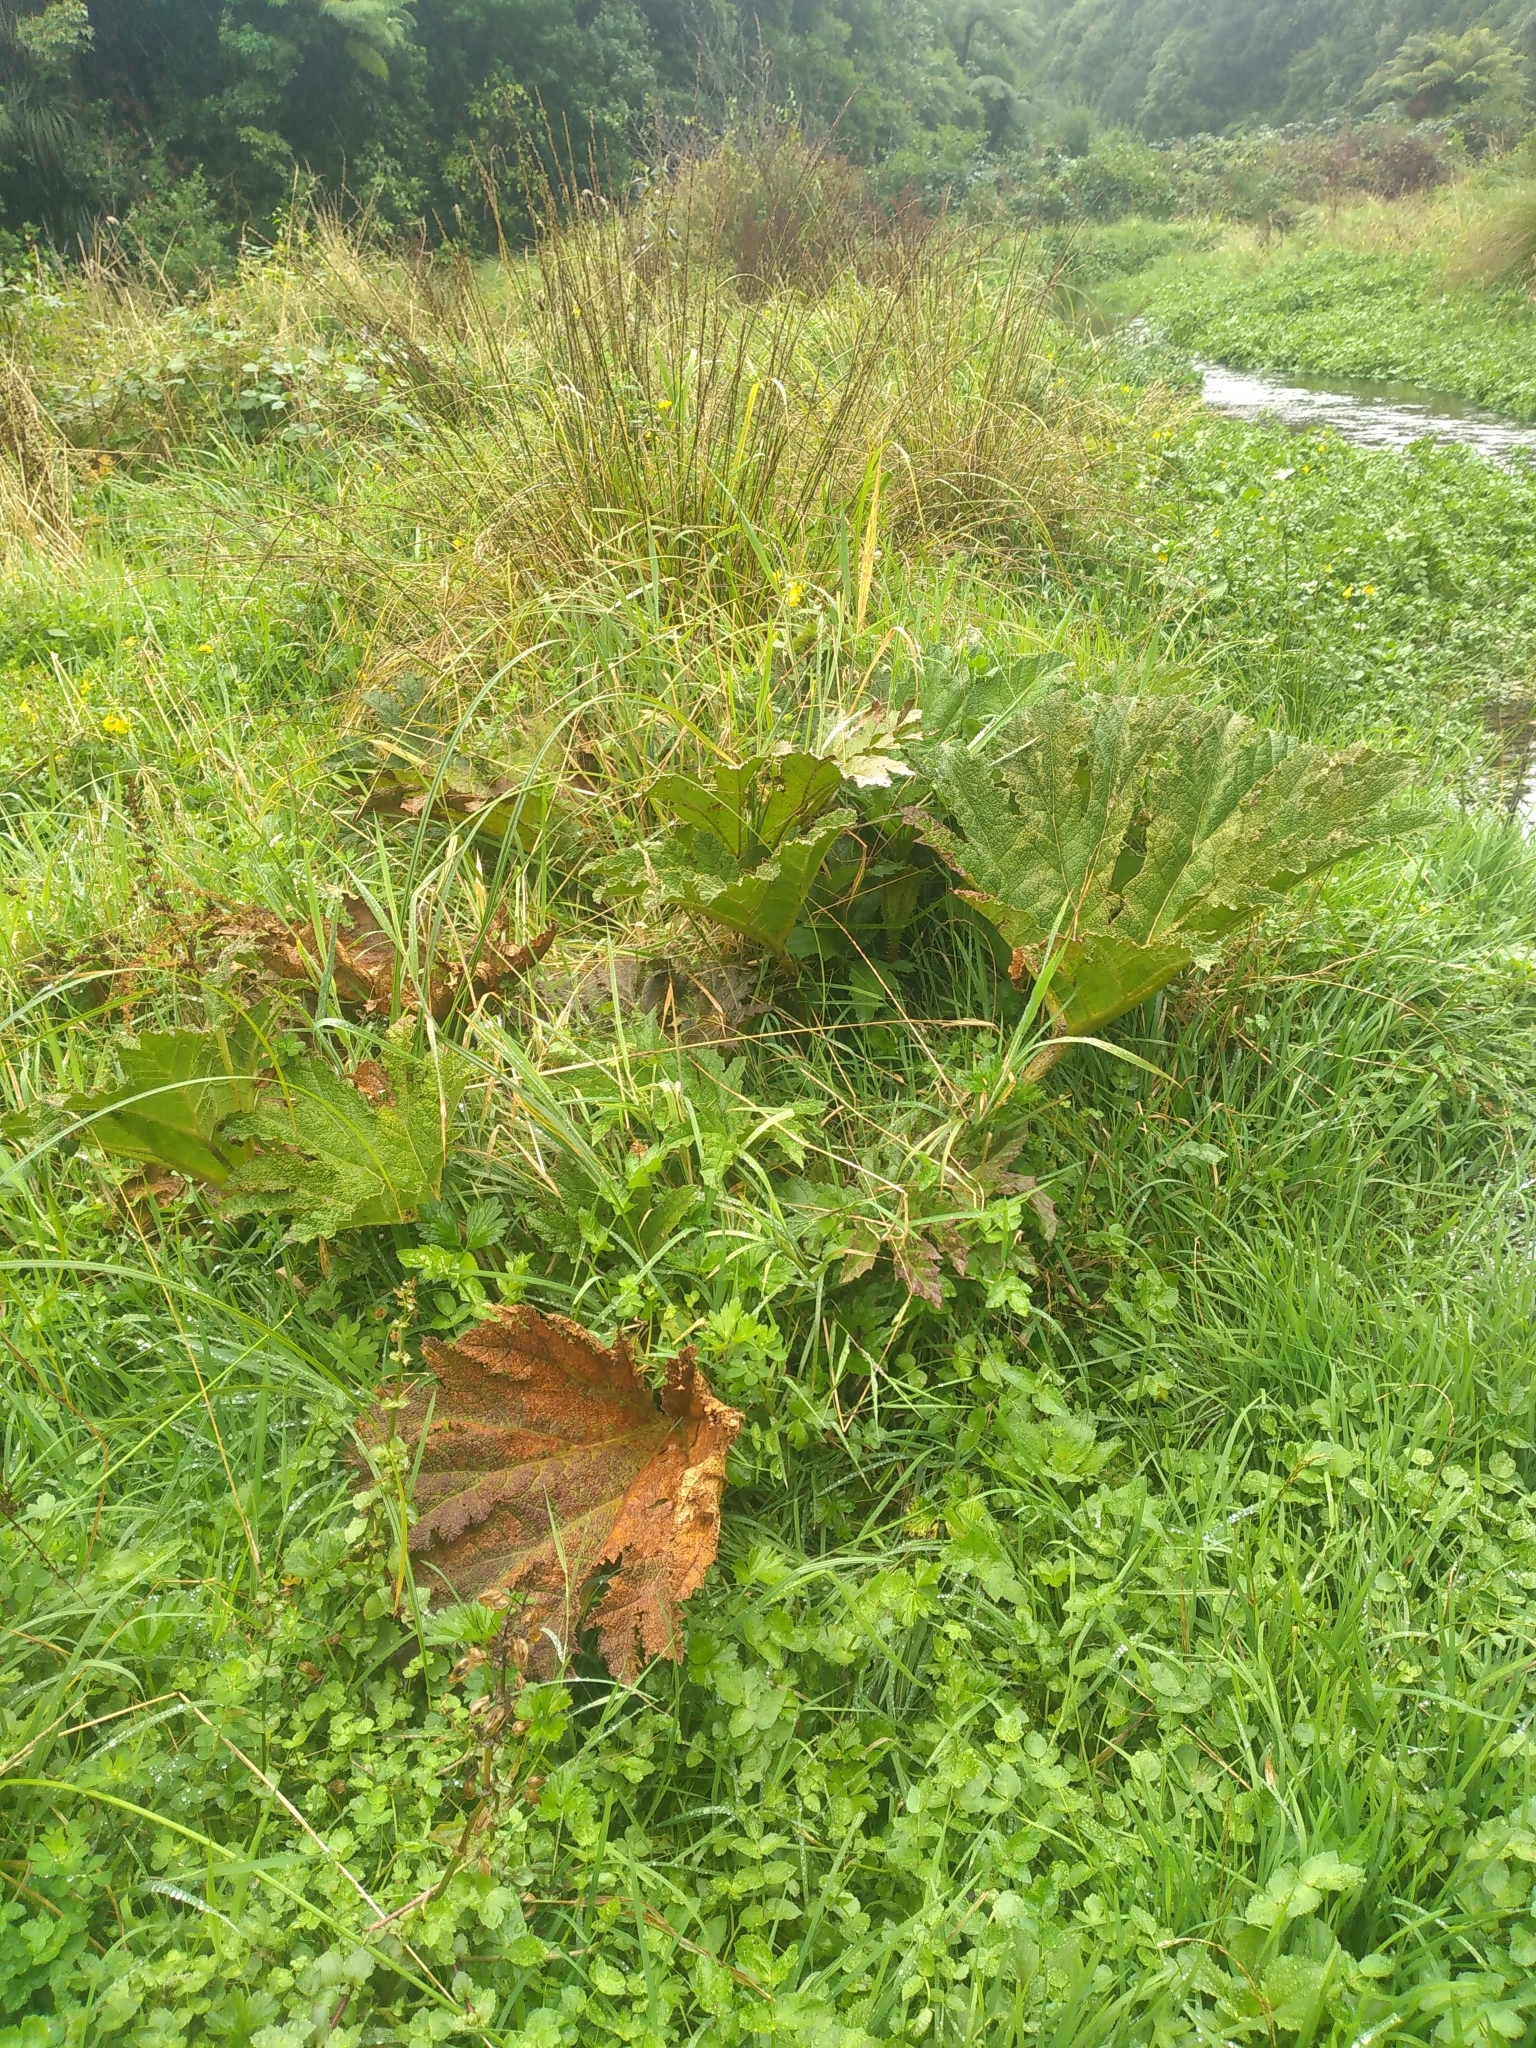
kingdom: Plantae
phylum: Tracheophyta
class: Magnoliopsida
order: Gunnerales
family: Gunneraceae
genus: Gunnera
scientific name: Gunnera tinctoria
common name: Giant-rhubarb
